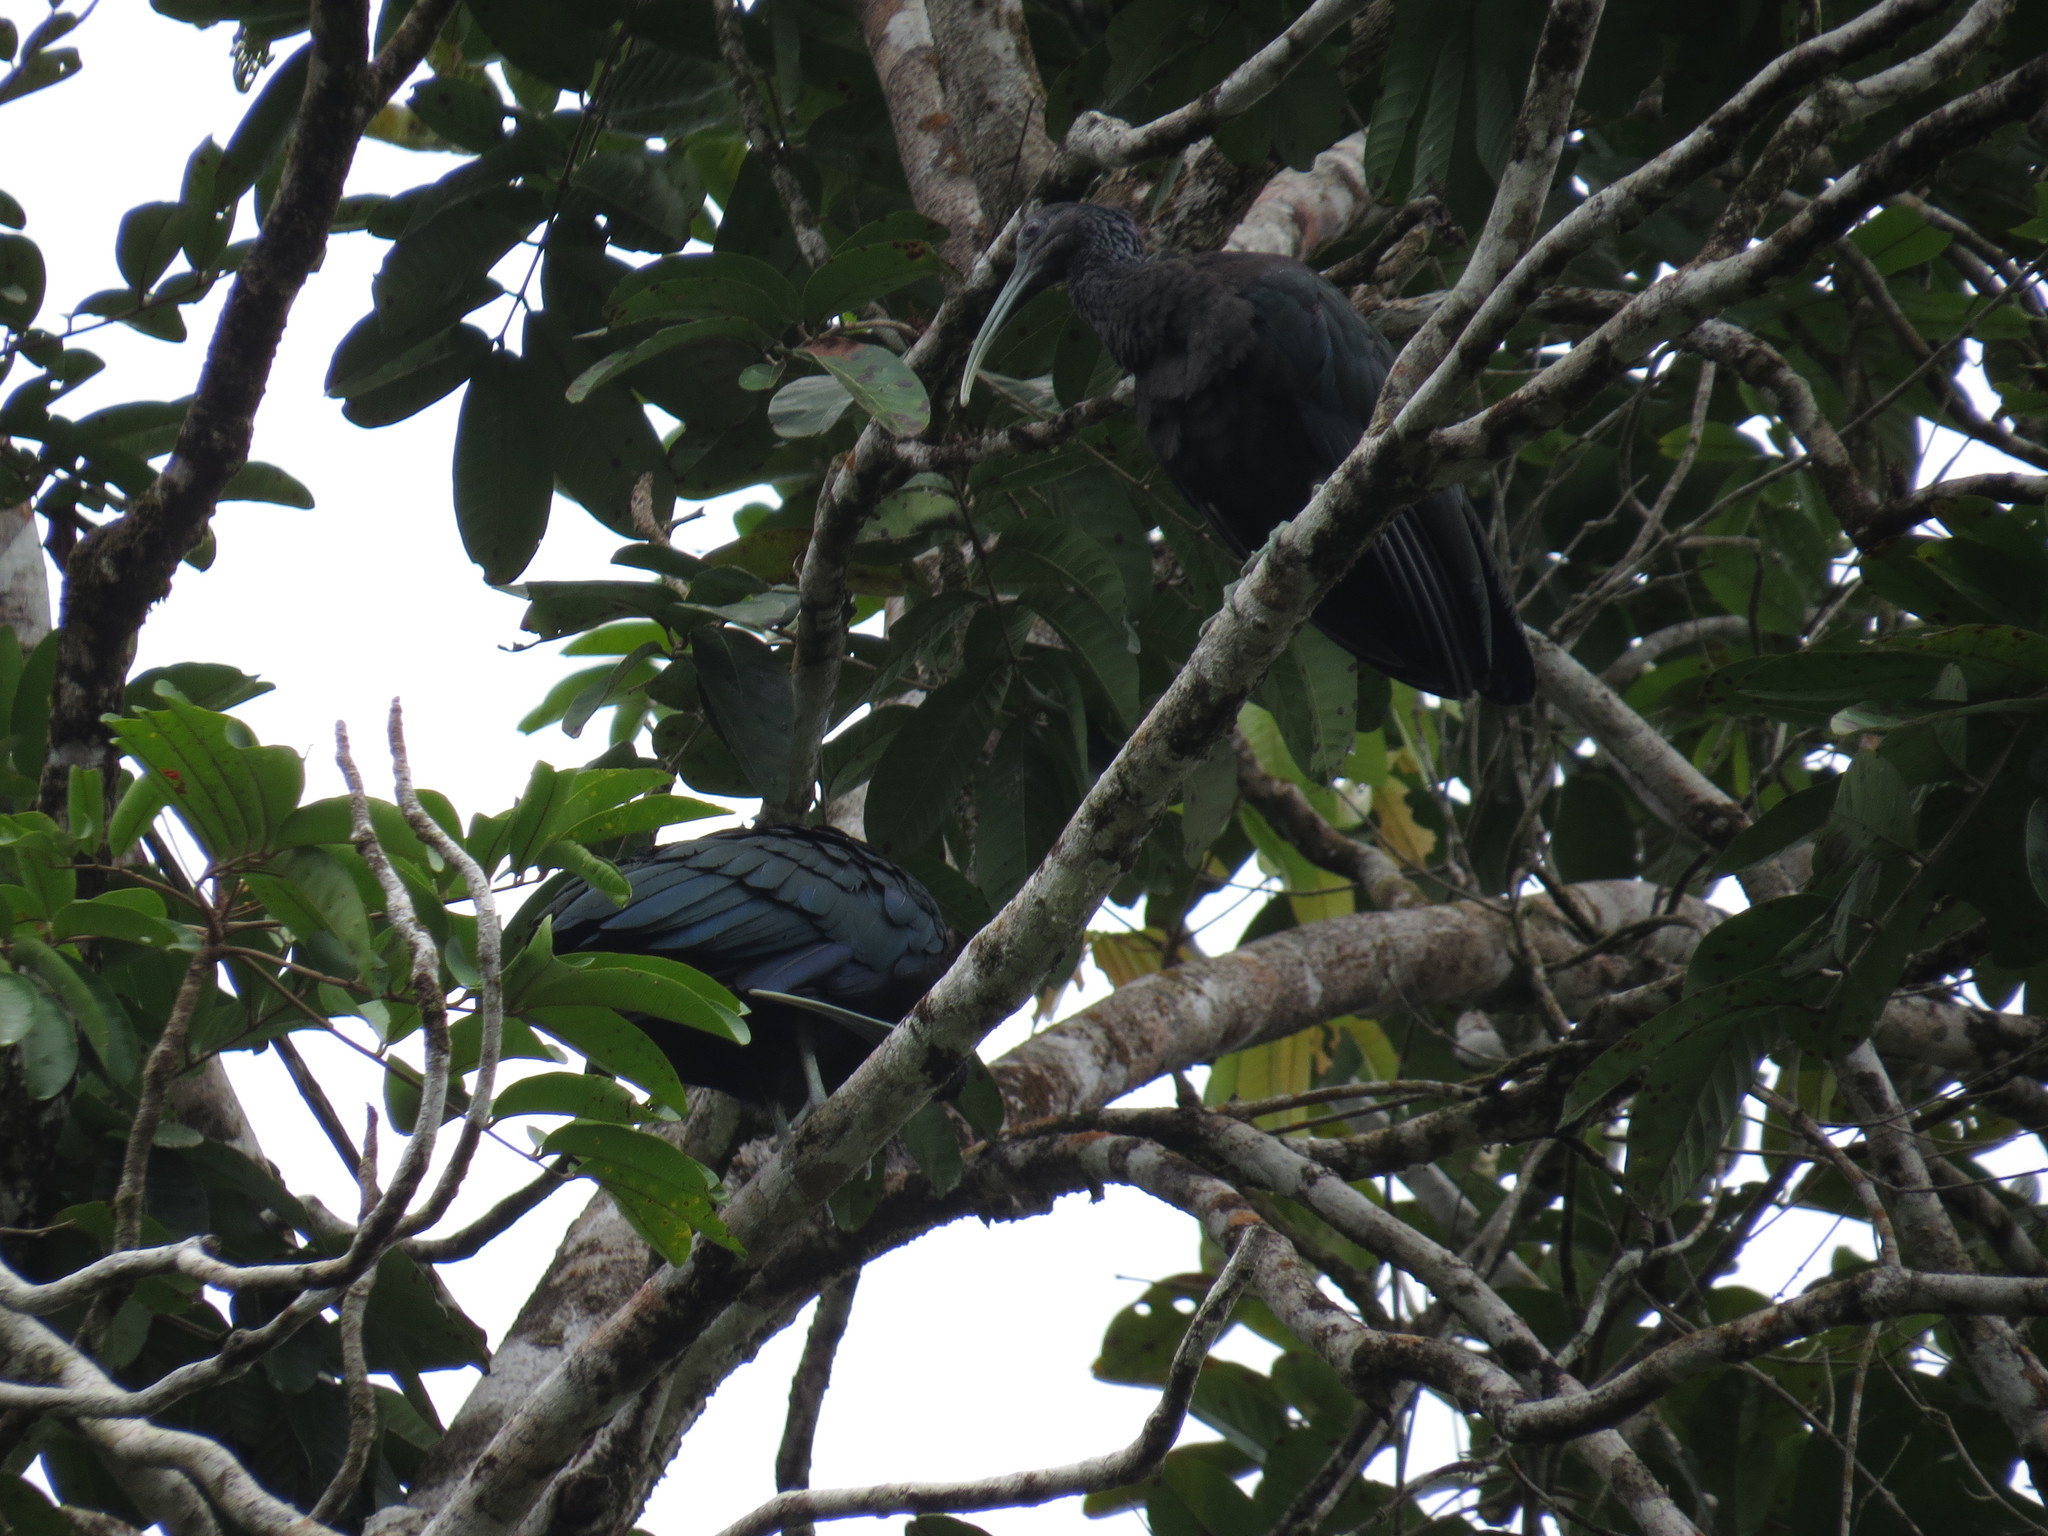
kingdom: Animalia
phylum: Chordata
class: Aves
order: Pelecaniformes
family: Threskiornithidae
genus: Mesembrinibis
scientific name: Mesembrinibis cayennensis
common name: Green ibis
